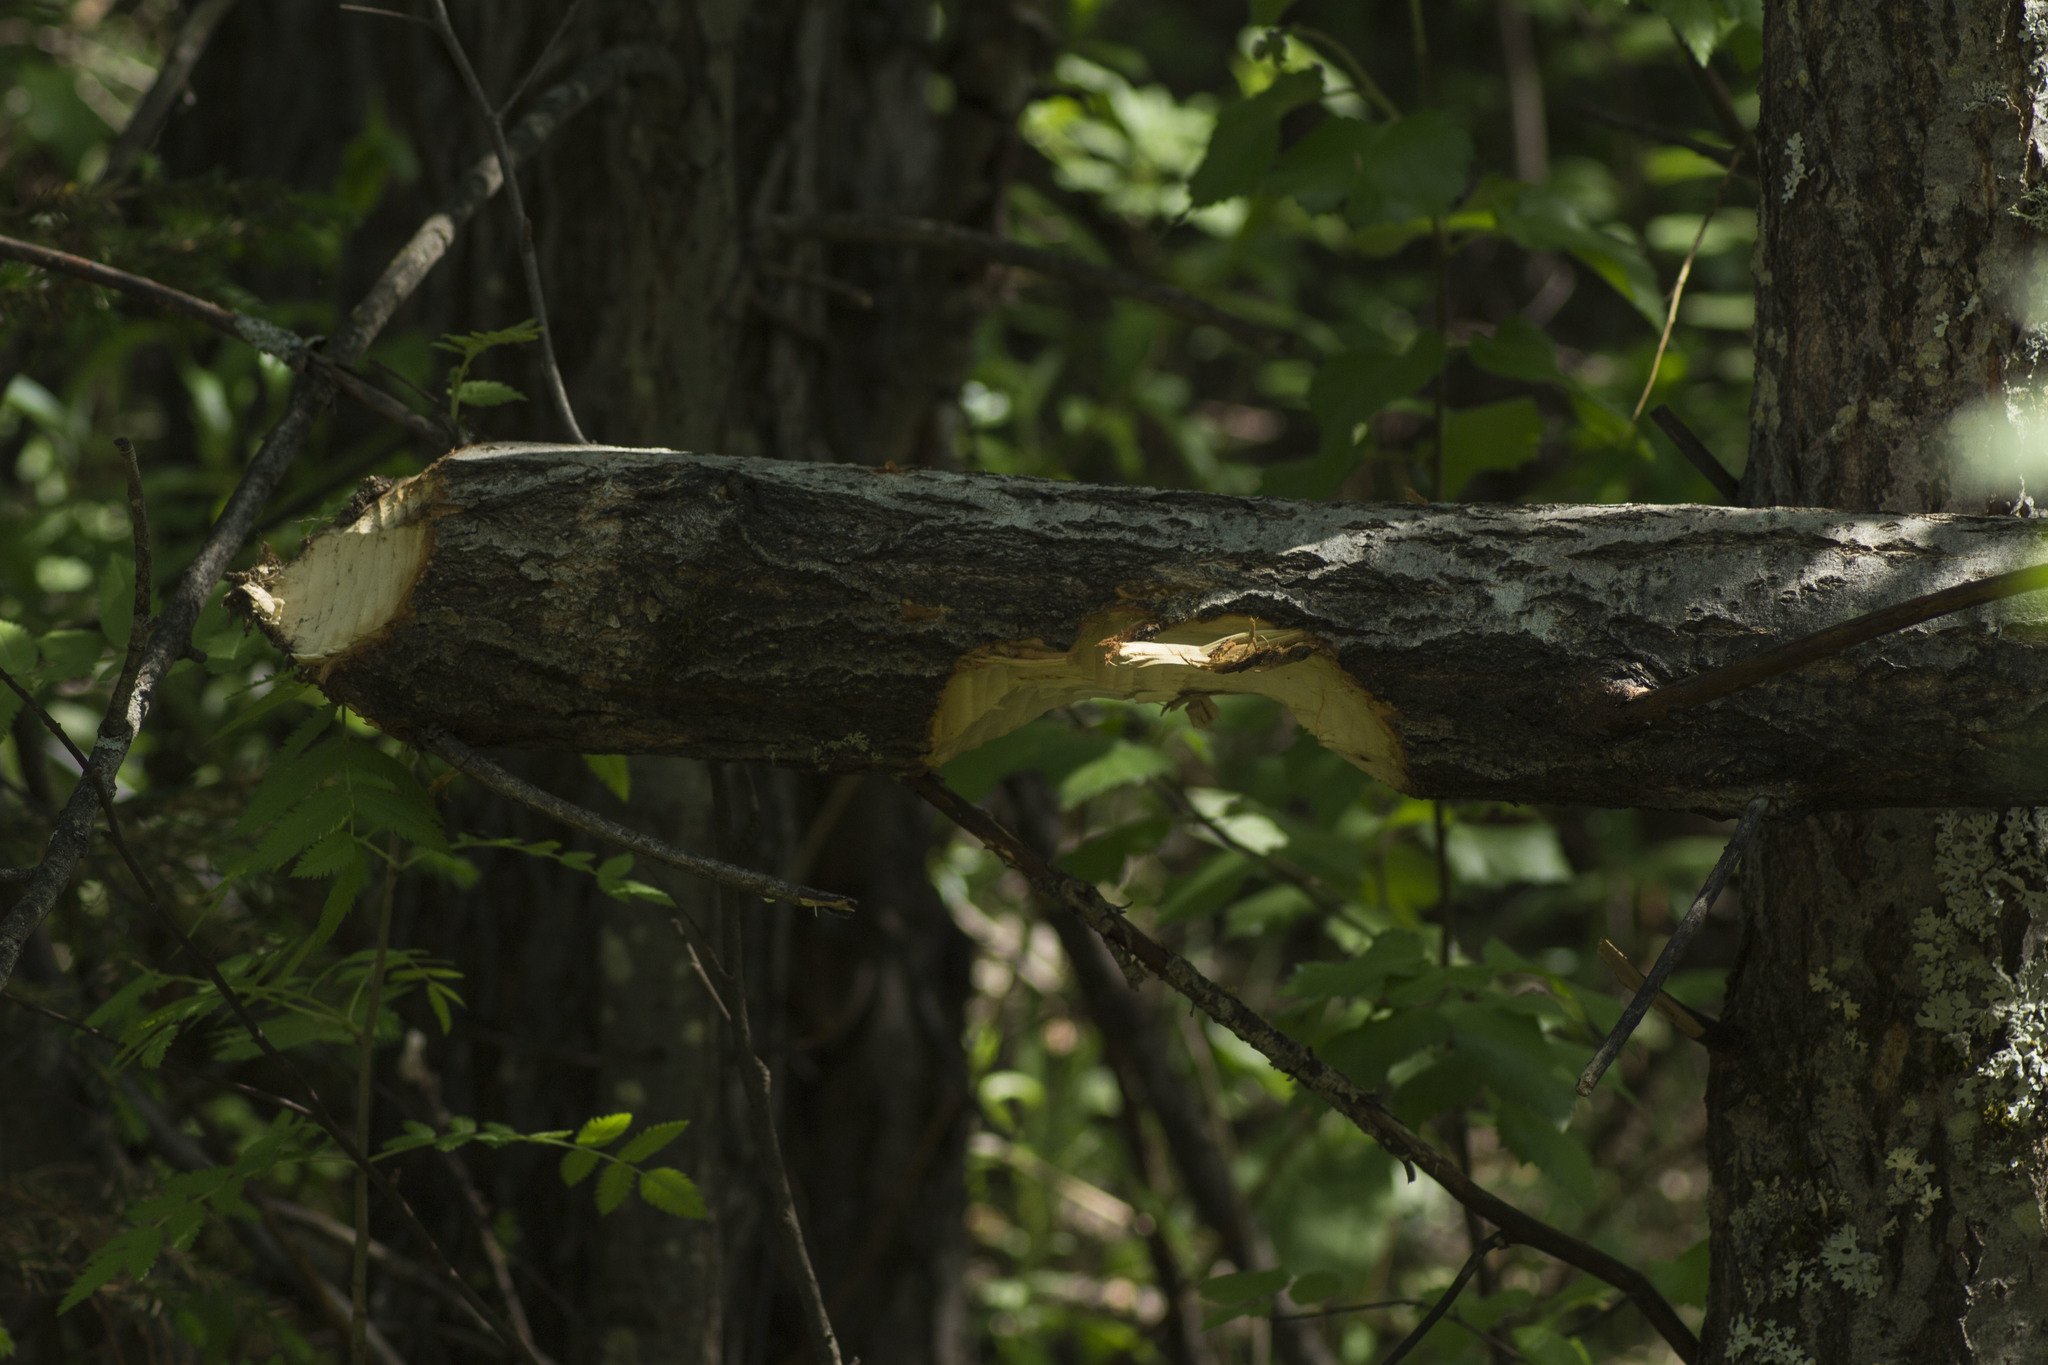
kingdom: Animalia
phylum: Chordata
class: Mammalia
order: Rodentia
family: Castoridae
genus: Castor
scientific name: Castor fiber
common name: Eurasian beaver
